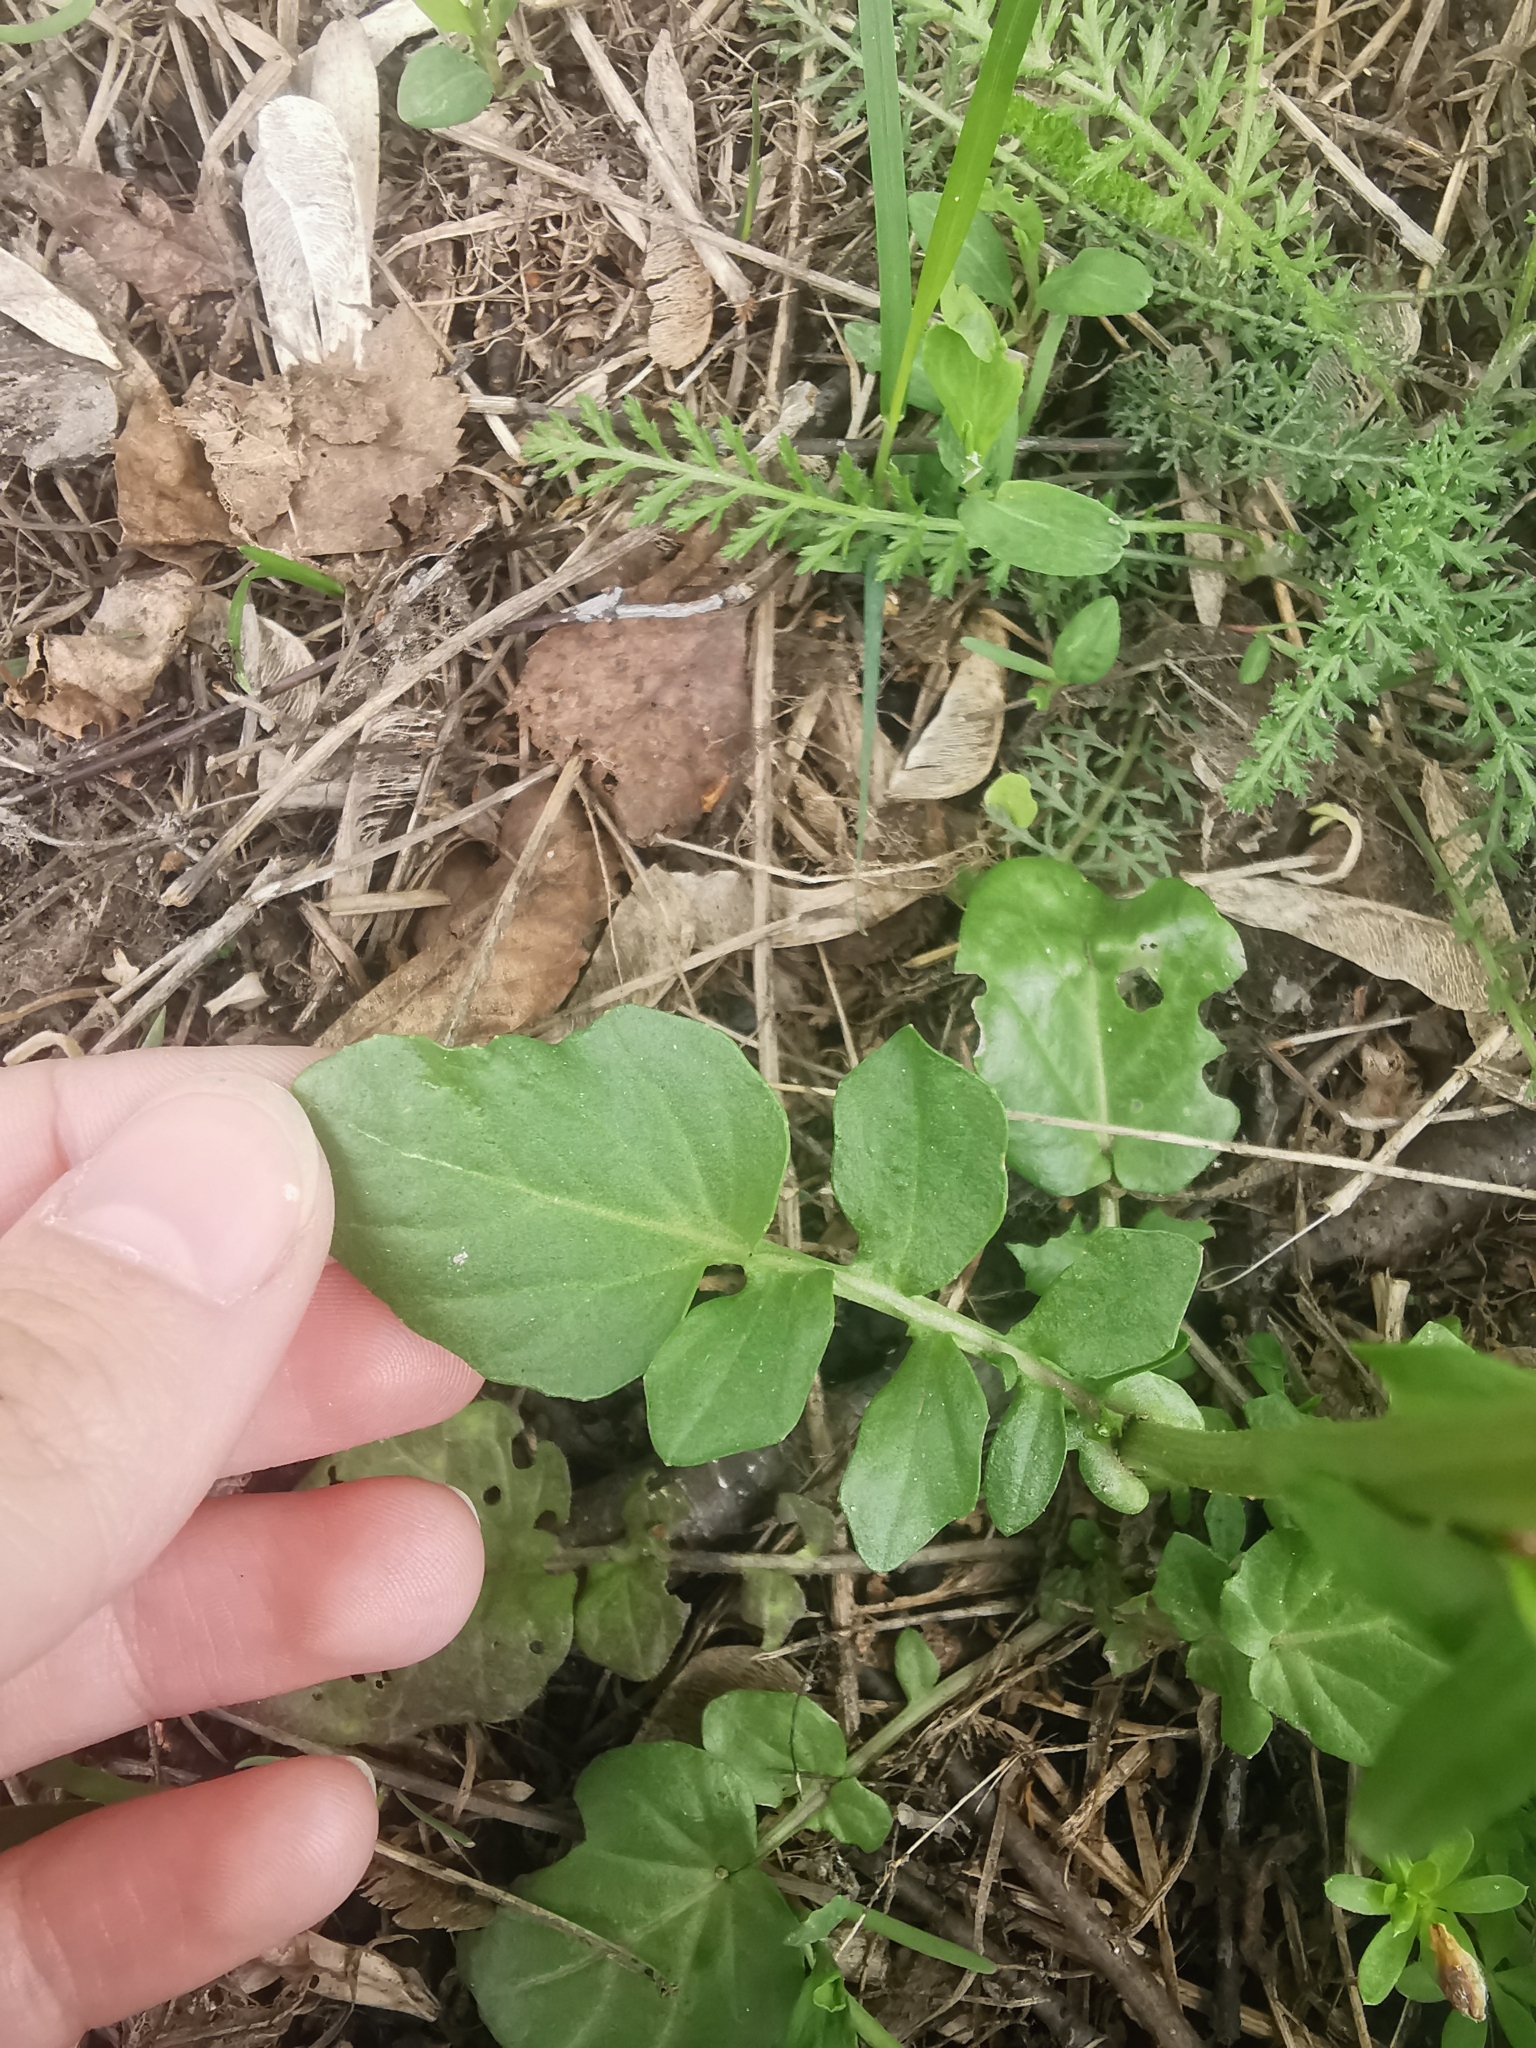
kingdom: Plantae
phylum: Tracheophyta
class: Magnoliopsida
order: Brassicales
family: Brassicaceae
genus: Barbarea
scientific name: Barbarea vulgaris
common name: Cressy-greens
